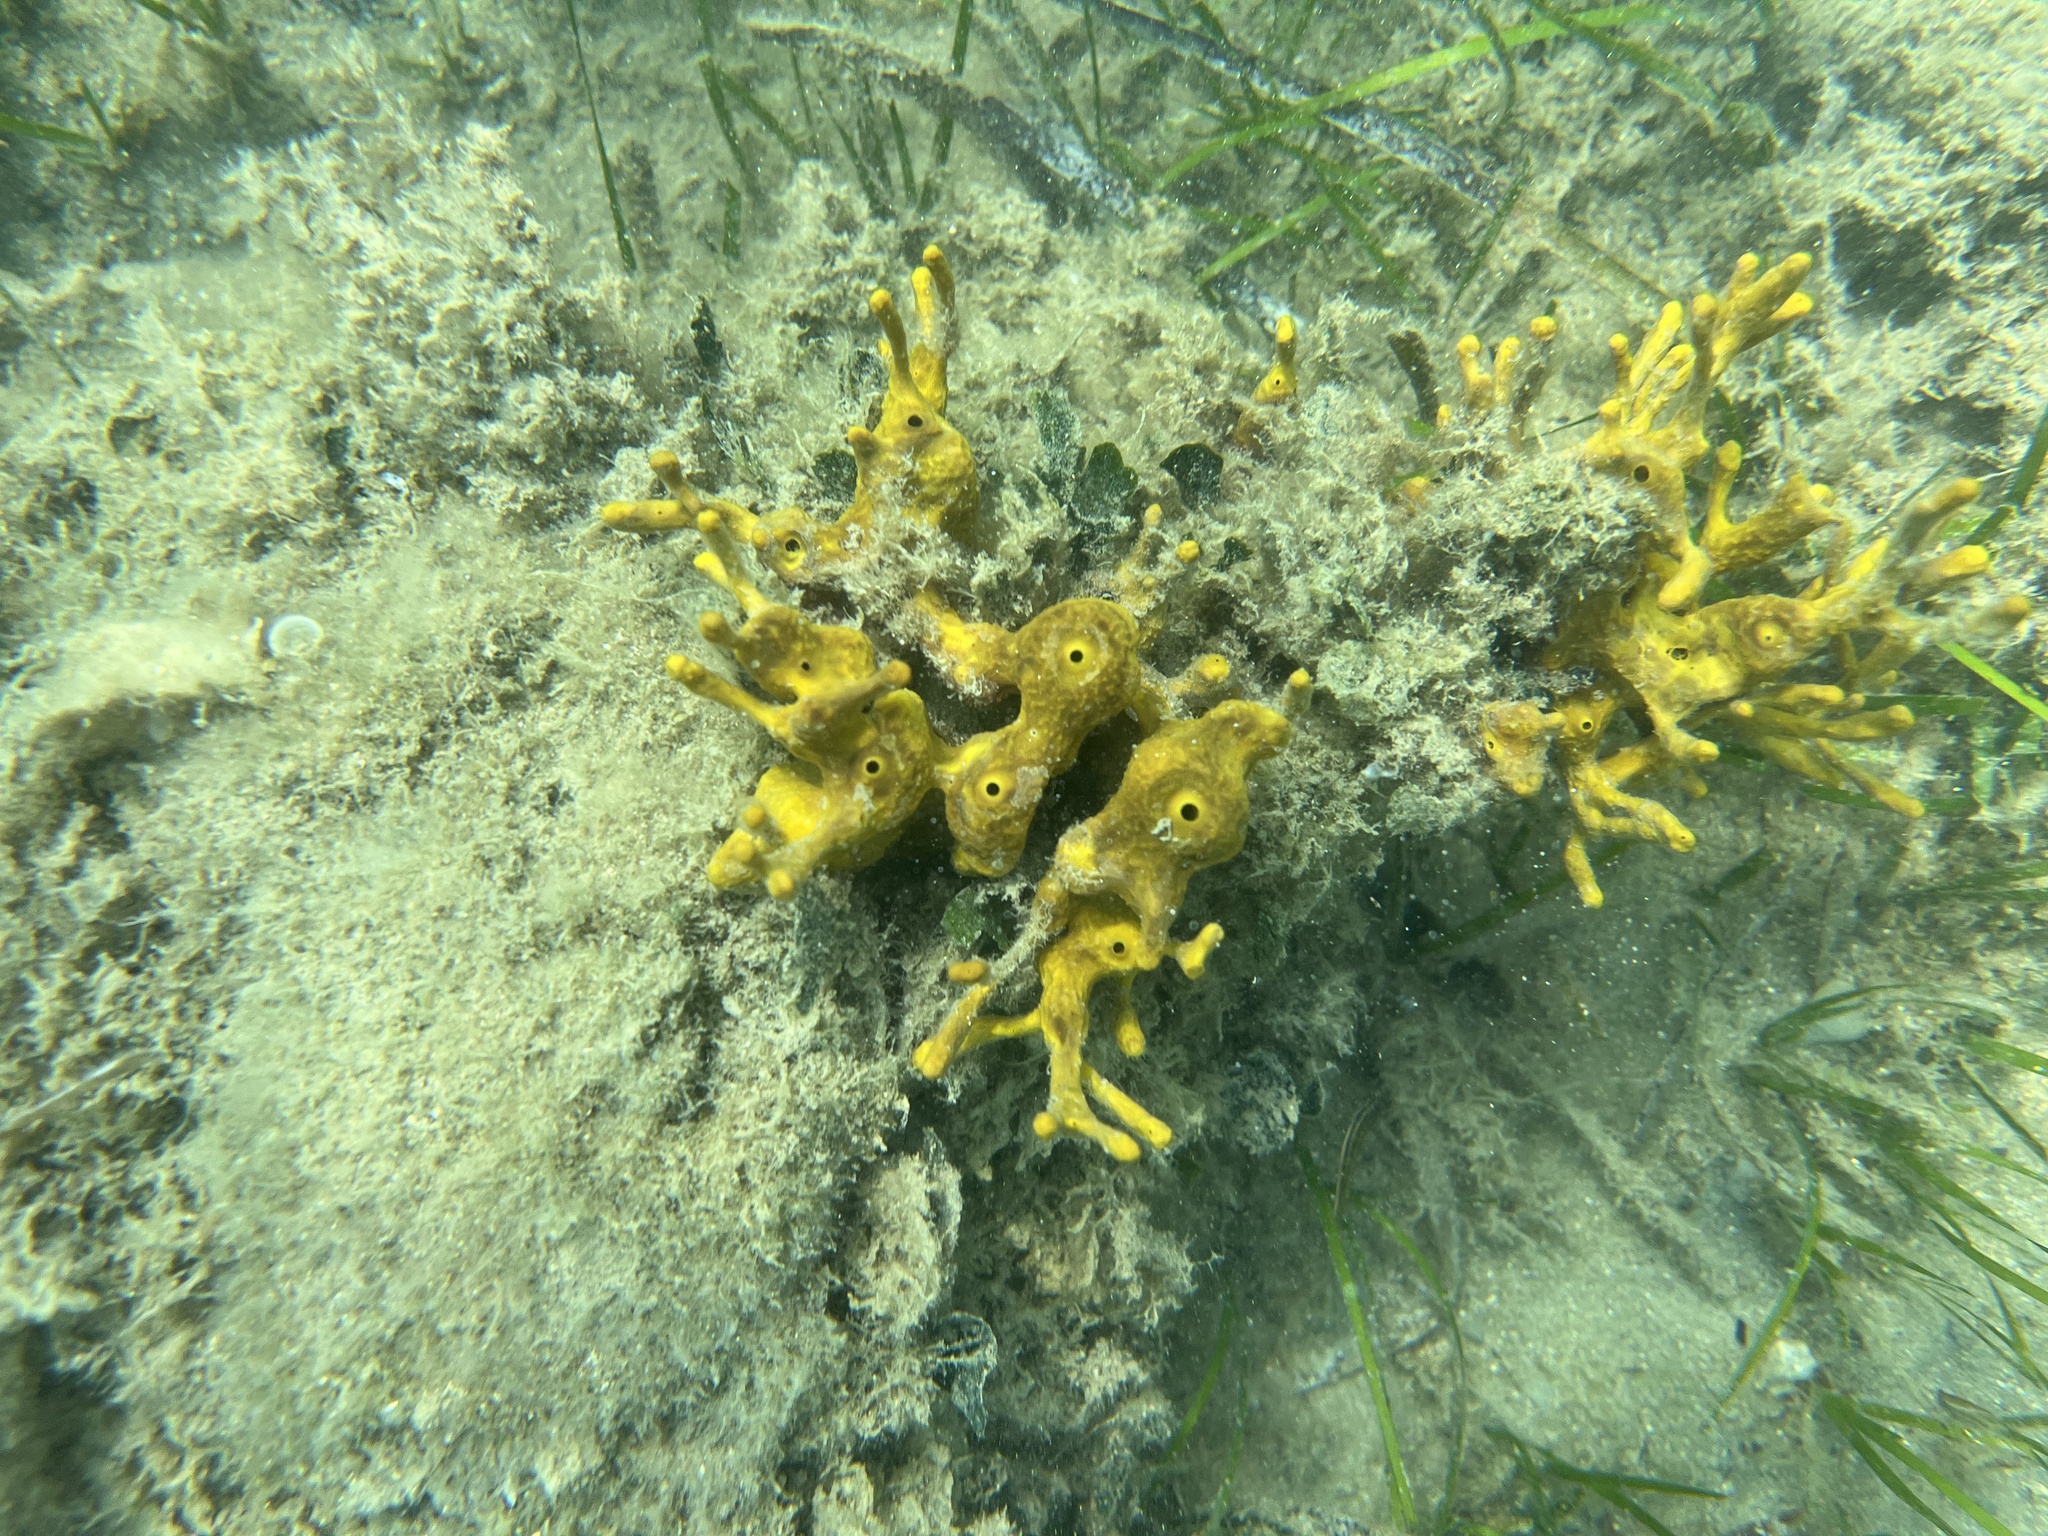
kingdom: Animalia
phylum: Porifera
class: Demospongiae
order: Verongiida
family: Aplysinidae
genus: Aplysina
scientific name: Aplysina aerophoba
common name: Aureate sponge
